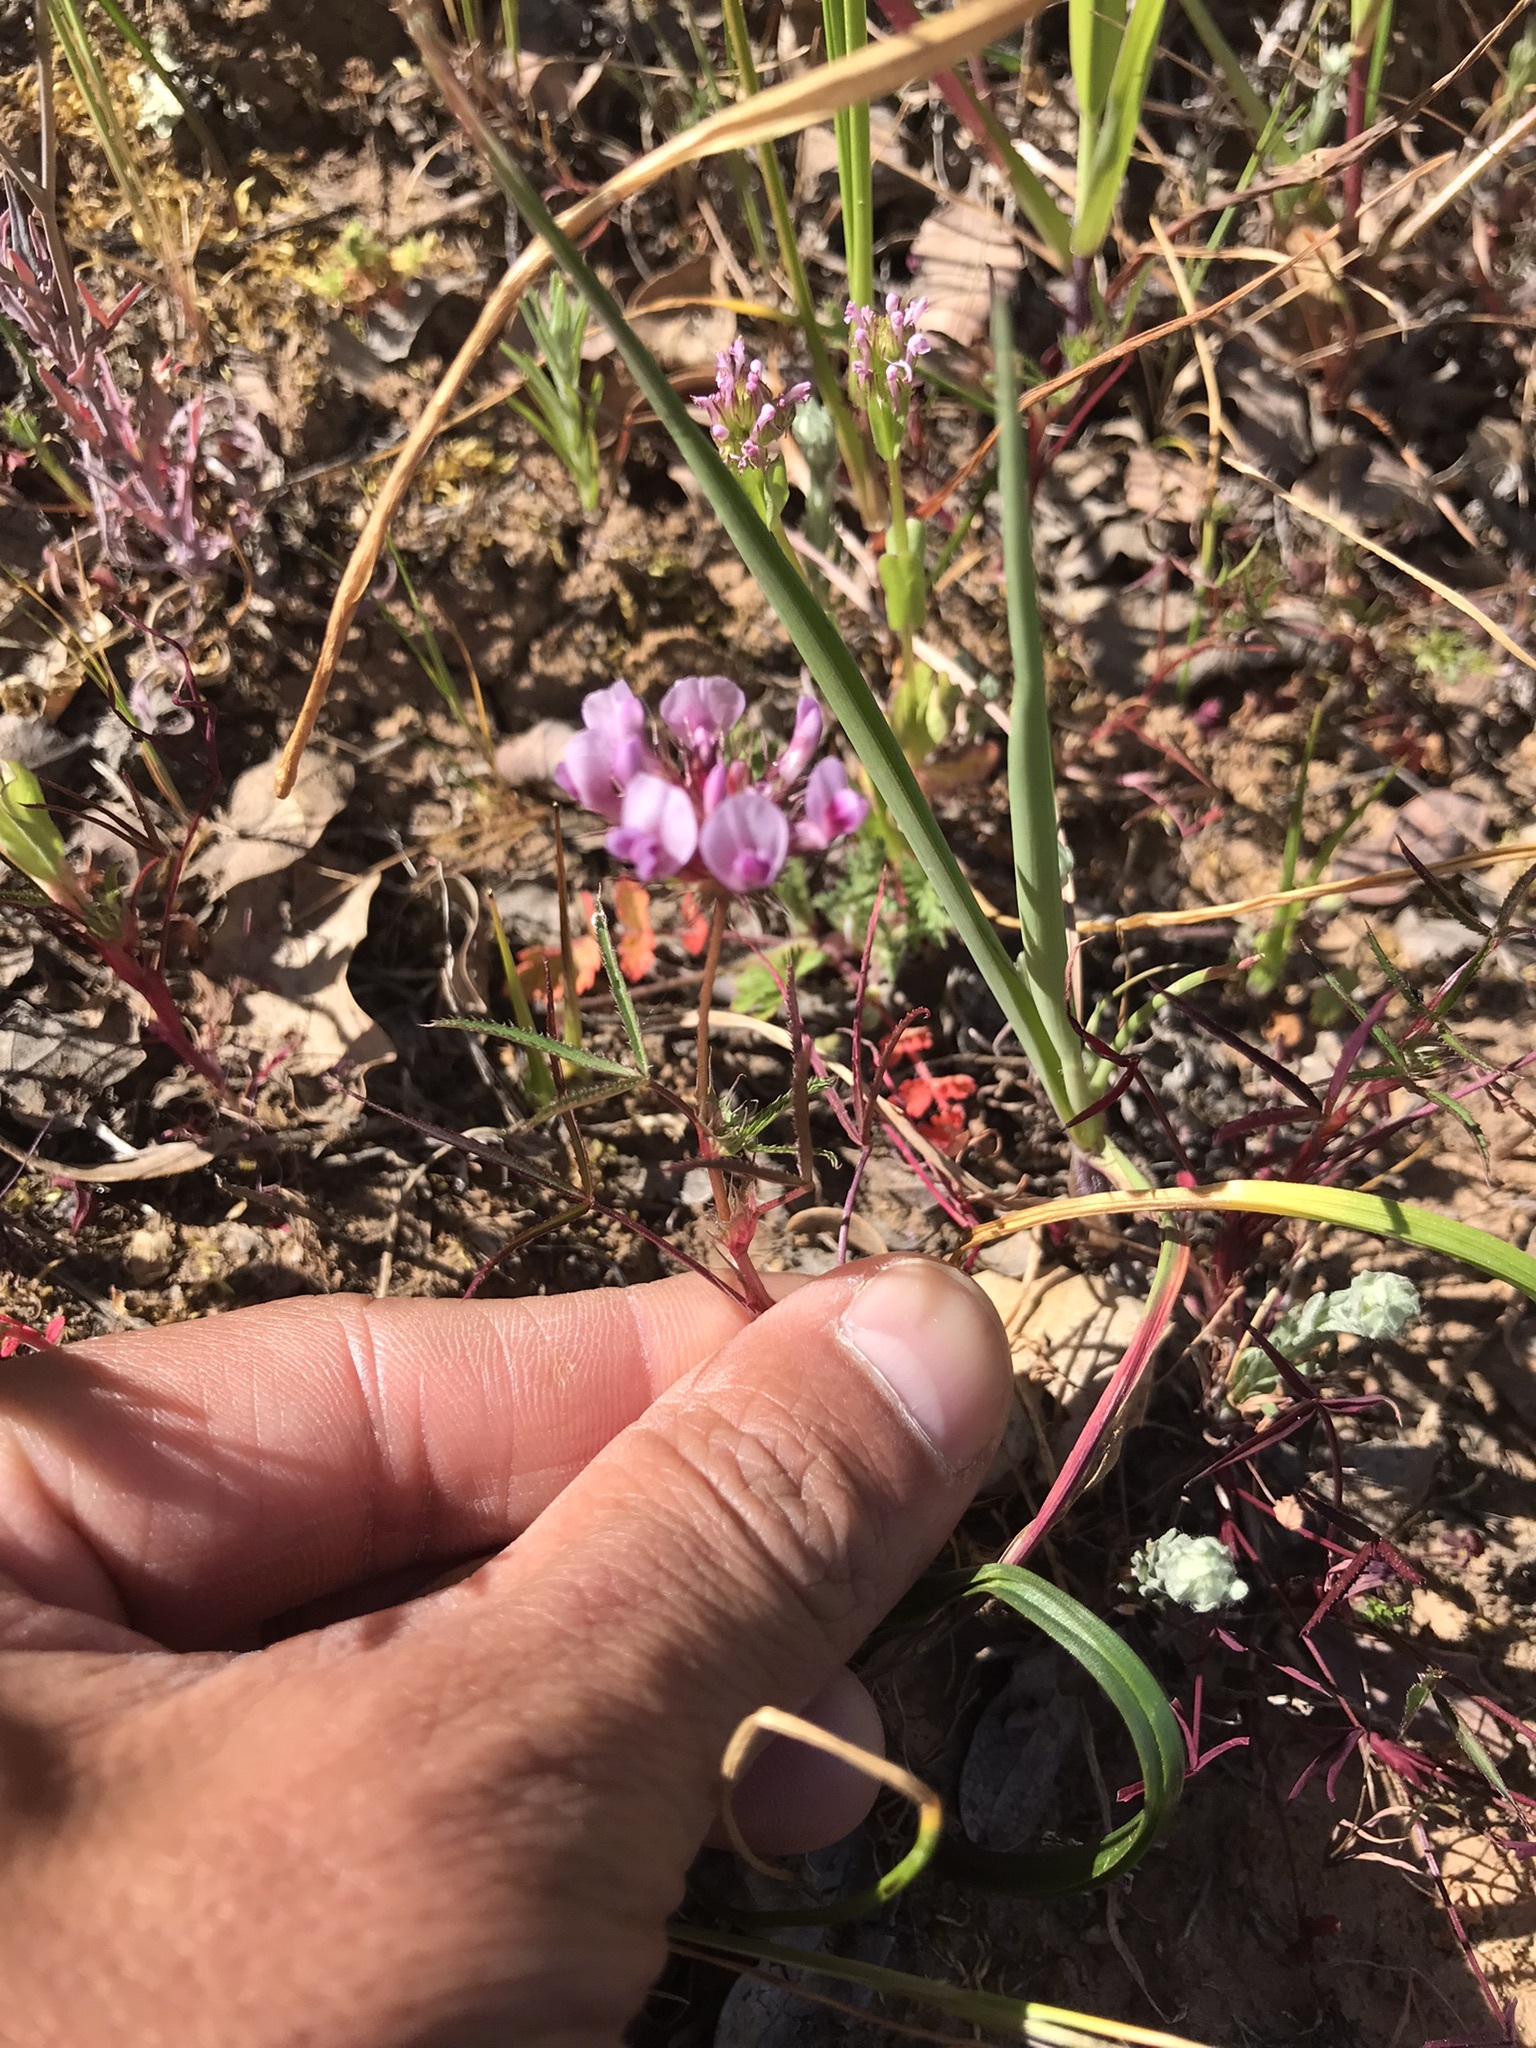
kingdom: Plantae
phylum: Tracheophyta
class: Magnoliopsida
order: Fabales
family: Fabaceae
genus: Trifolium
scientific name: Trifolium willdenovii
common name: Tomcat clover
